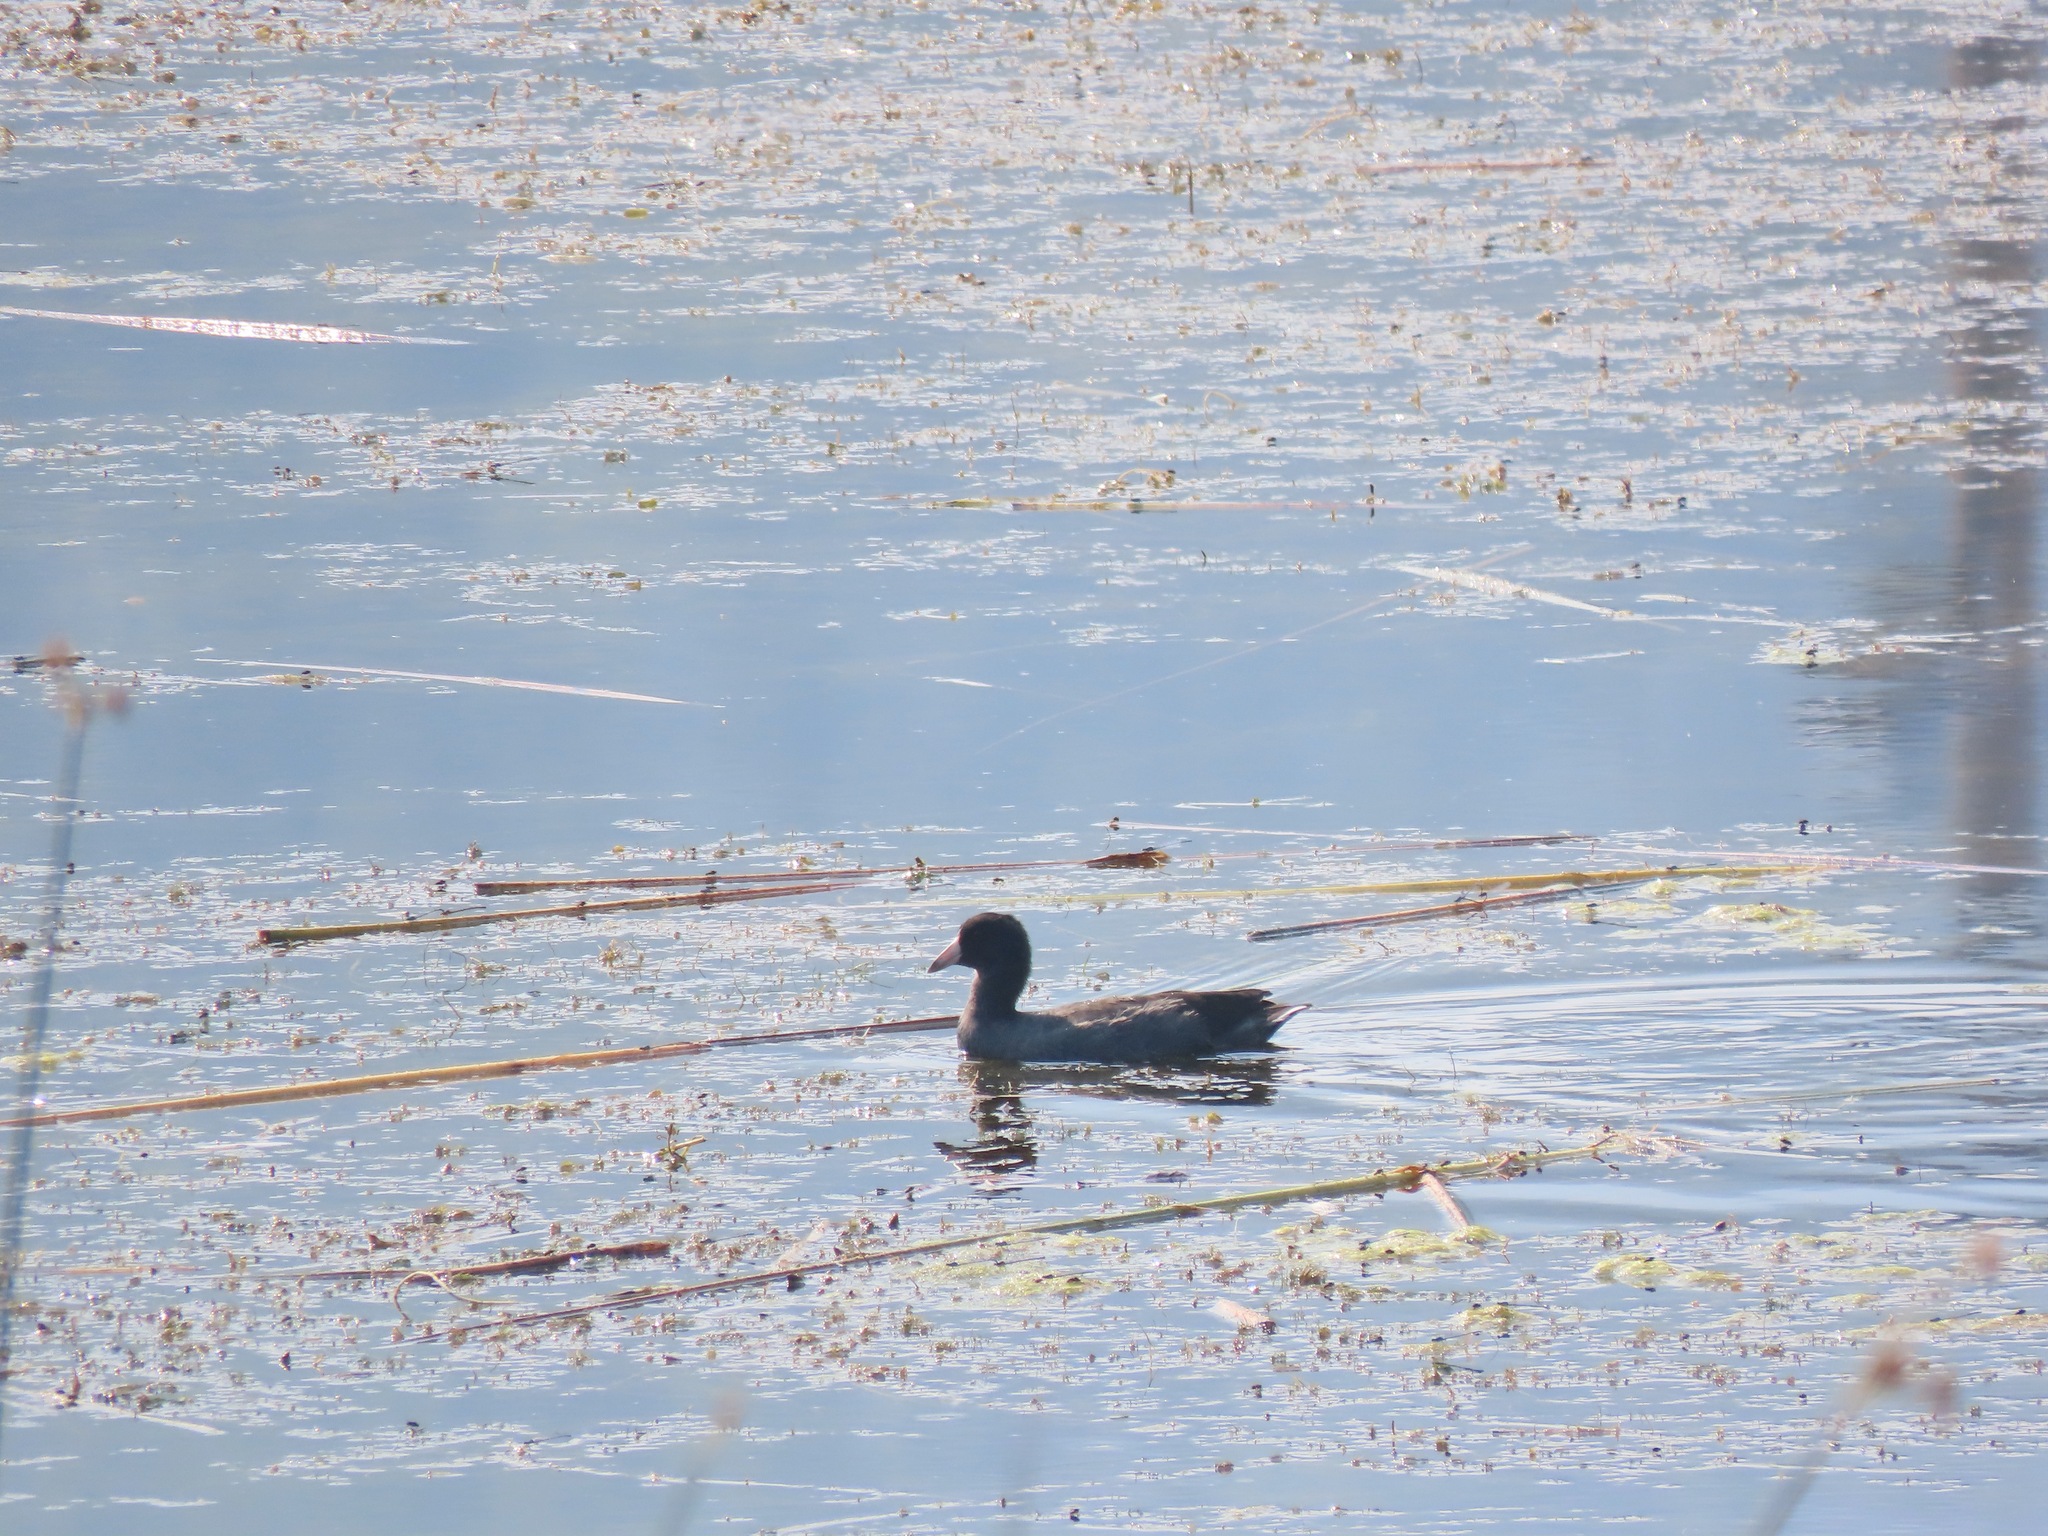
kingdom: Animalia
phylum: Chordata
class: Aves
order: Gruiformes
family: Rallidae
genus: Fulica
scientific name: Fulica americana
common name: American coot
